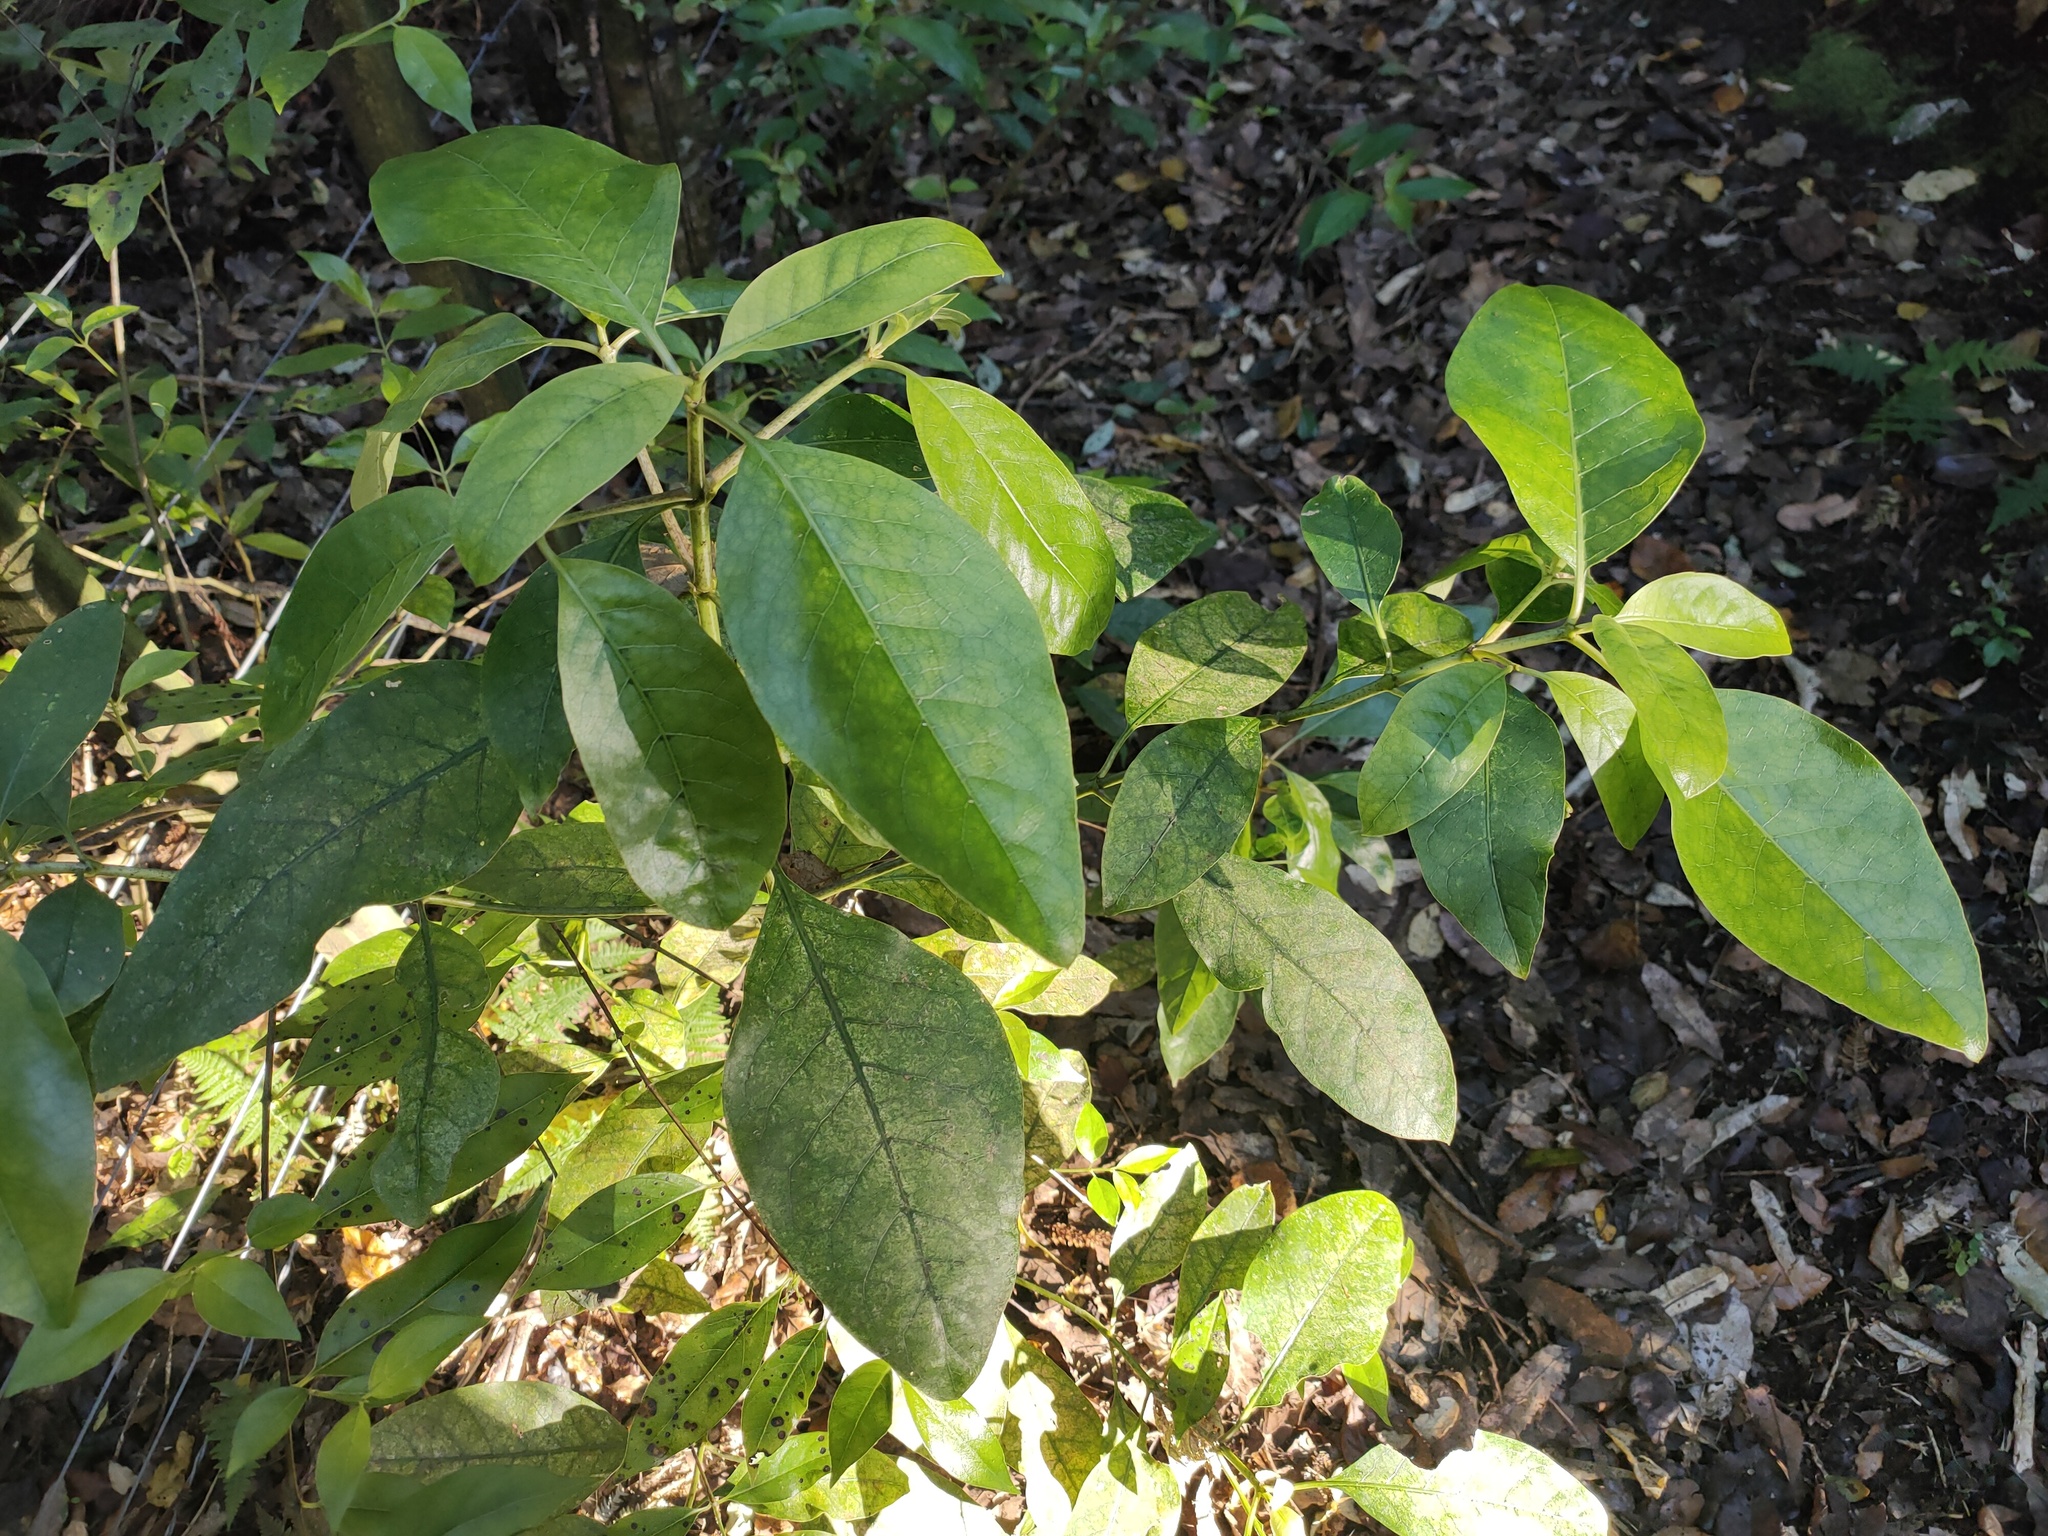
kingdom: Plantae
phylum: Tracheophyta
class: Magnoliopsida
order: Gentianales
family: Rubiaceae
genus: Coprosma
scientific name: Coprosma autumnalis
